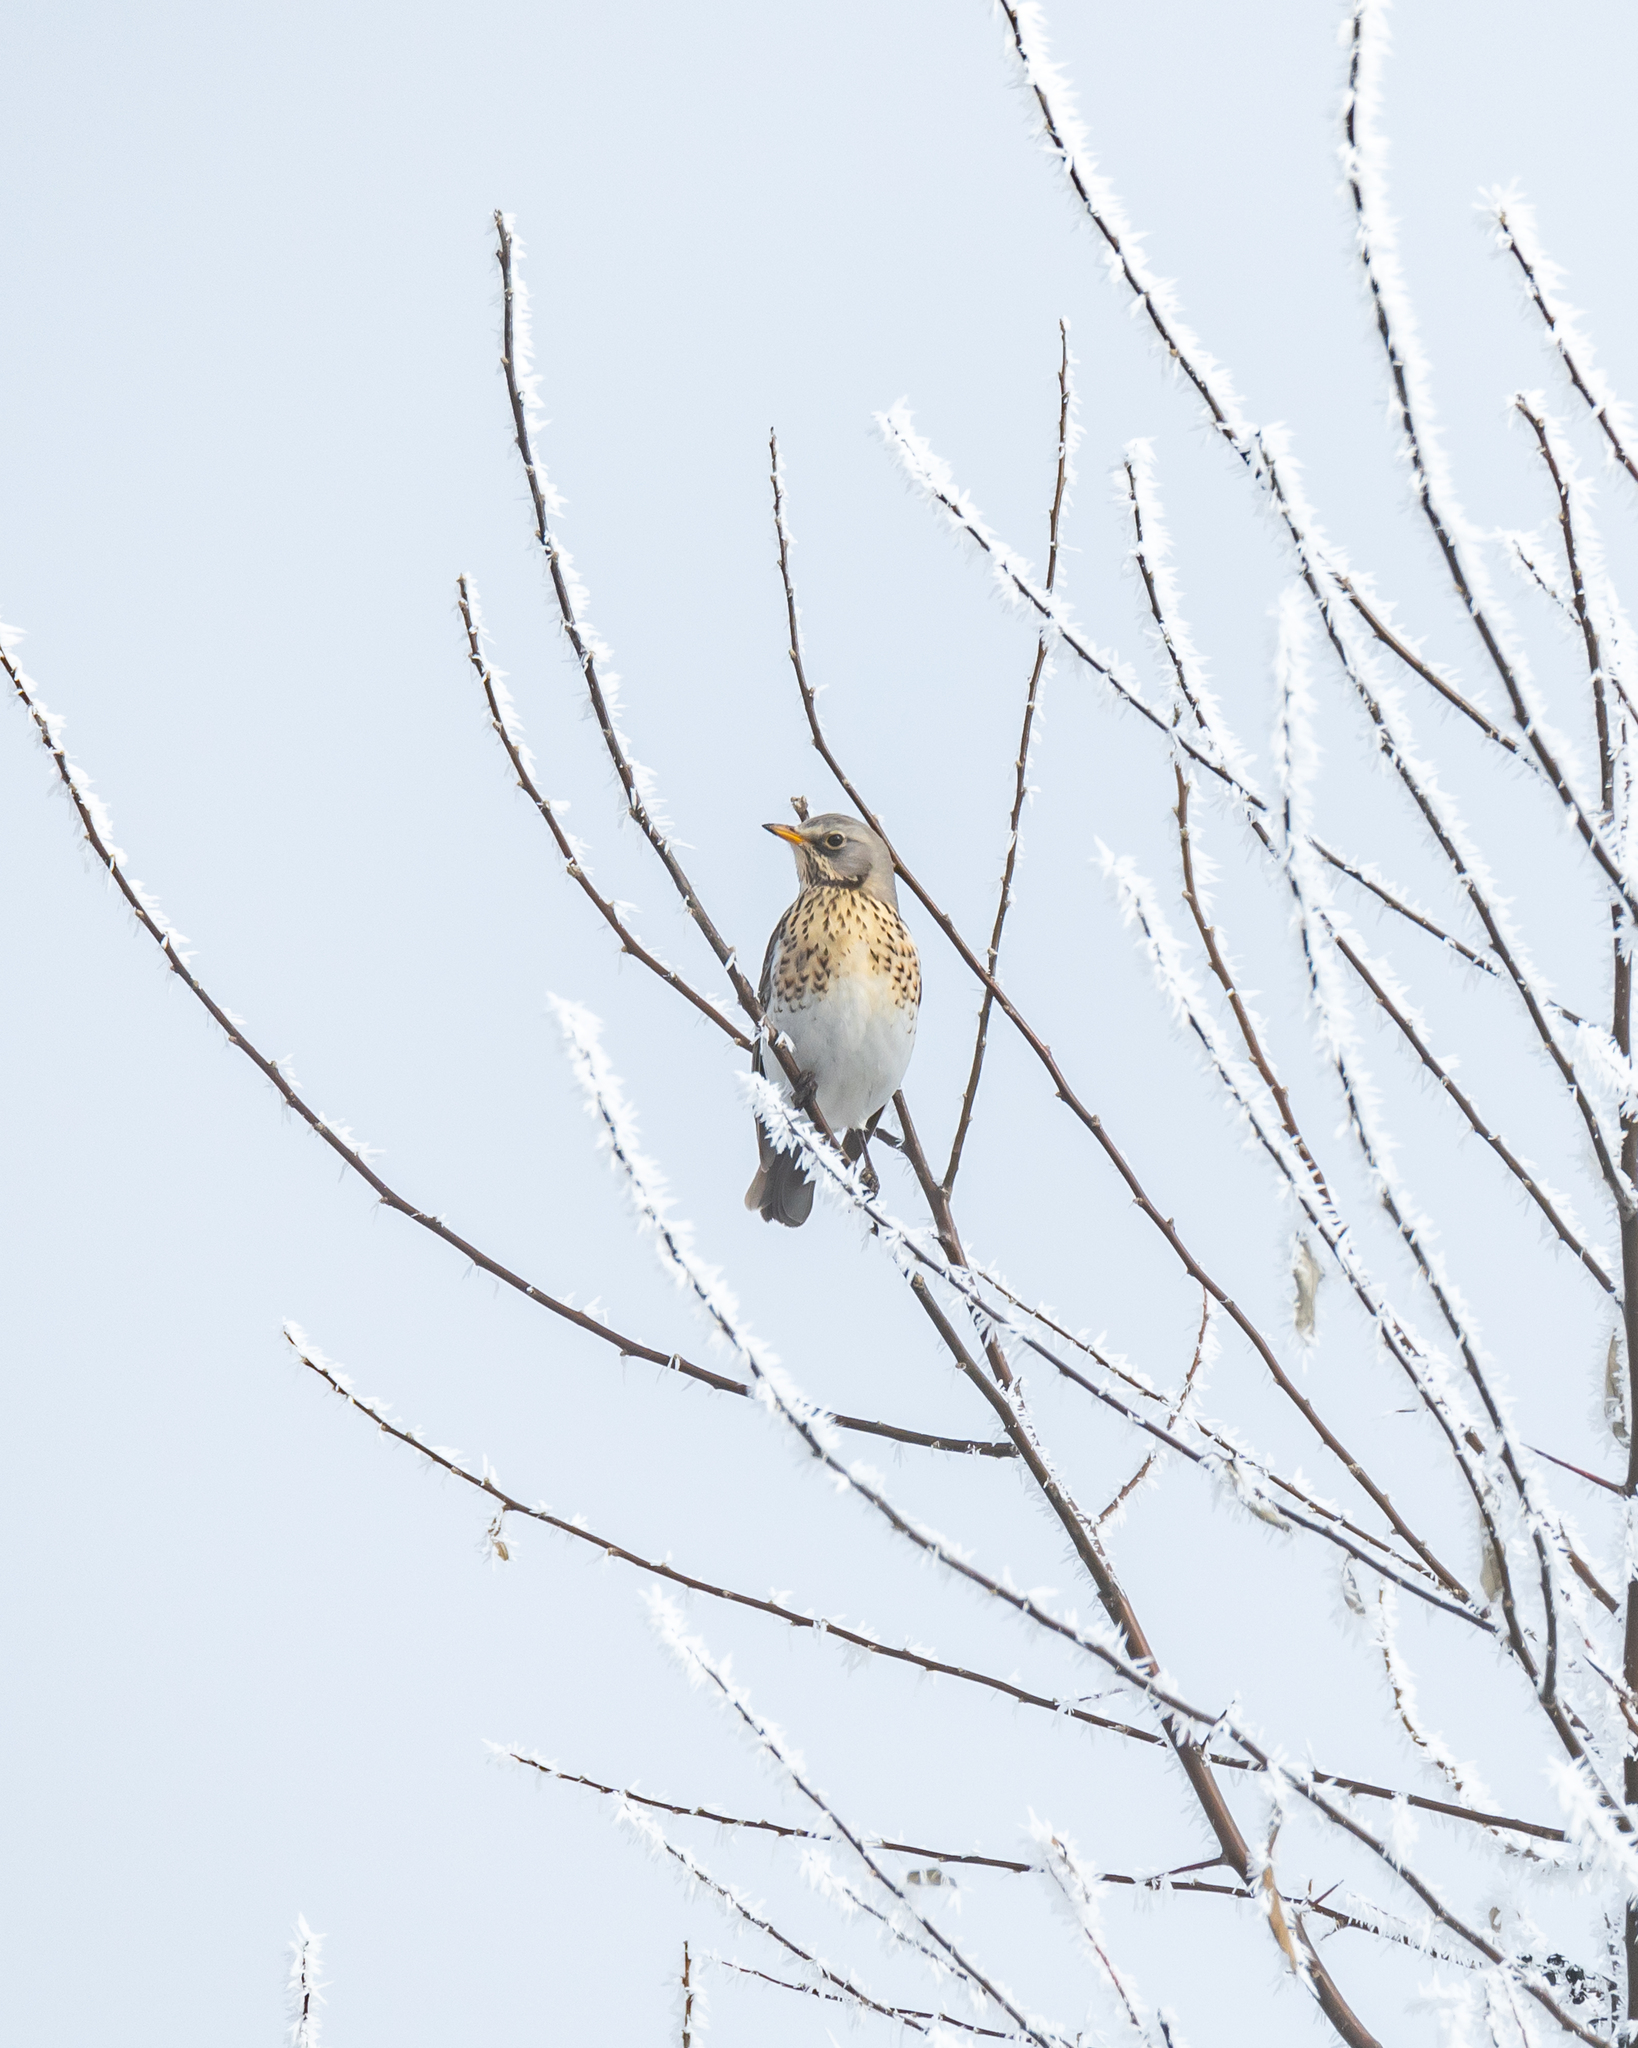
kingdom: Animalia
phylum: Chordata
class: Aves
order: Passeriformes
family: Turdidae
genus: Turdus
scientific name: Turdus pilaris
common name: Fieldfare
